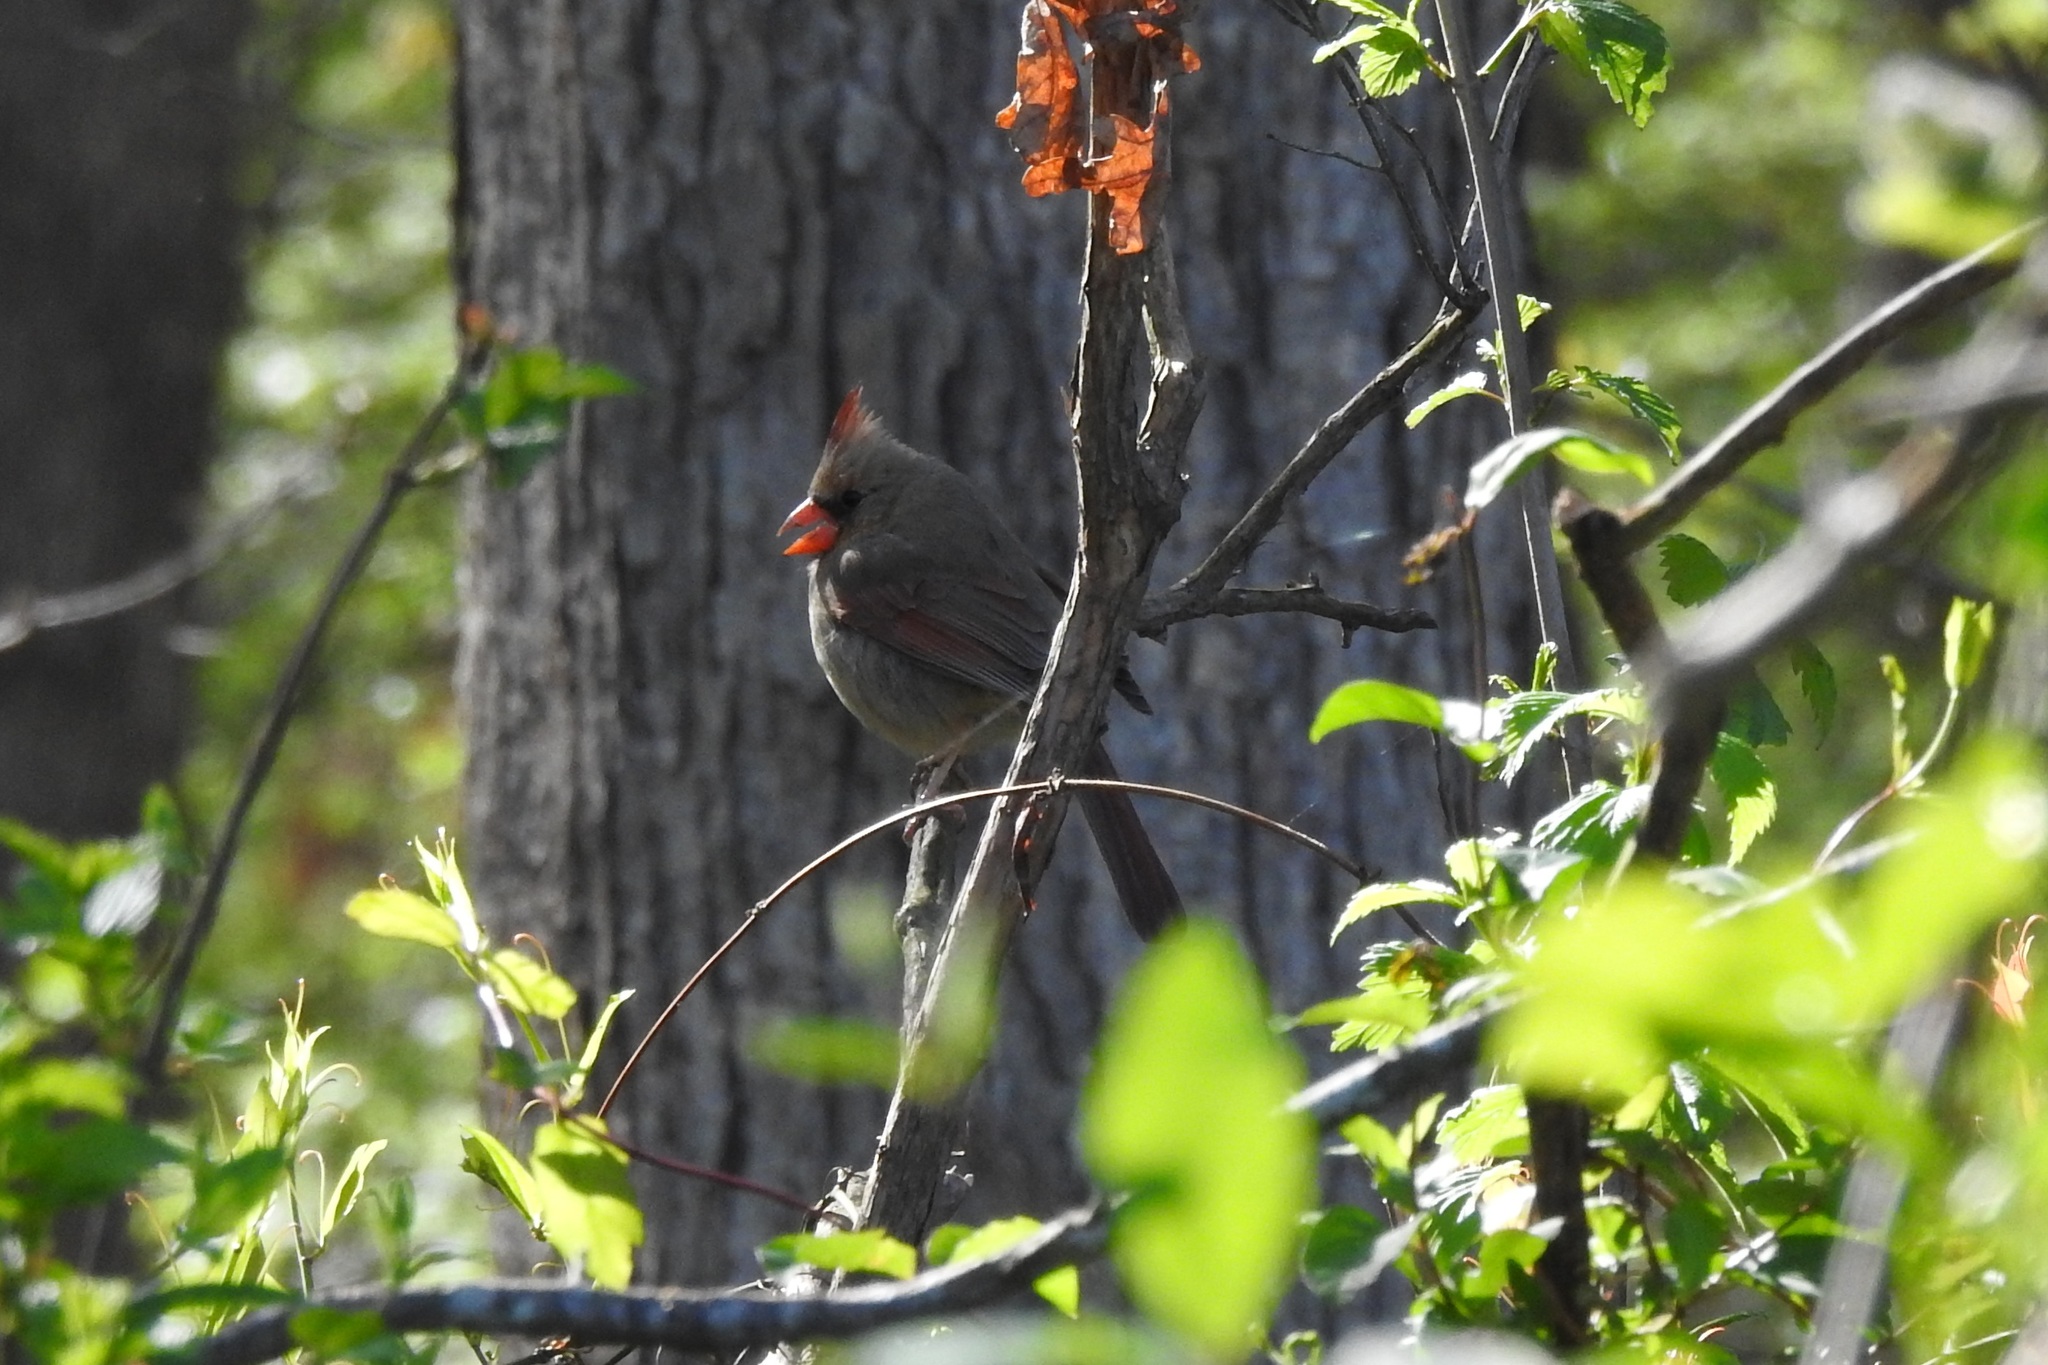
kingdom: Animalia
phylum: Chordata
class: Aves
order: Passeriformes
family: Cardinalidae
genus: Cardinalis
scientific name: Cardinalis cardinalis
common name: Northern cardinal
